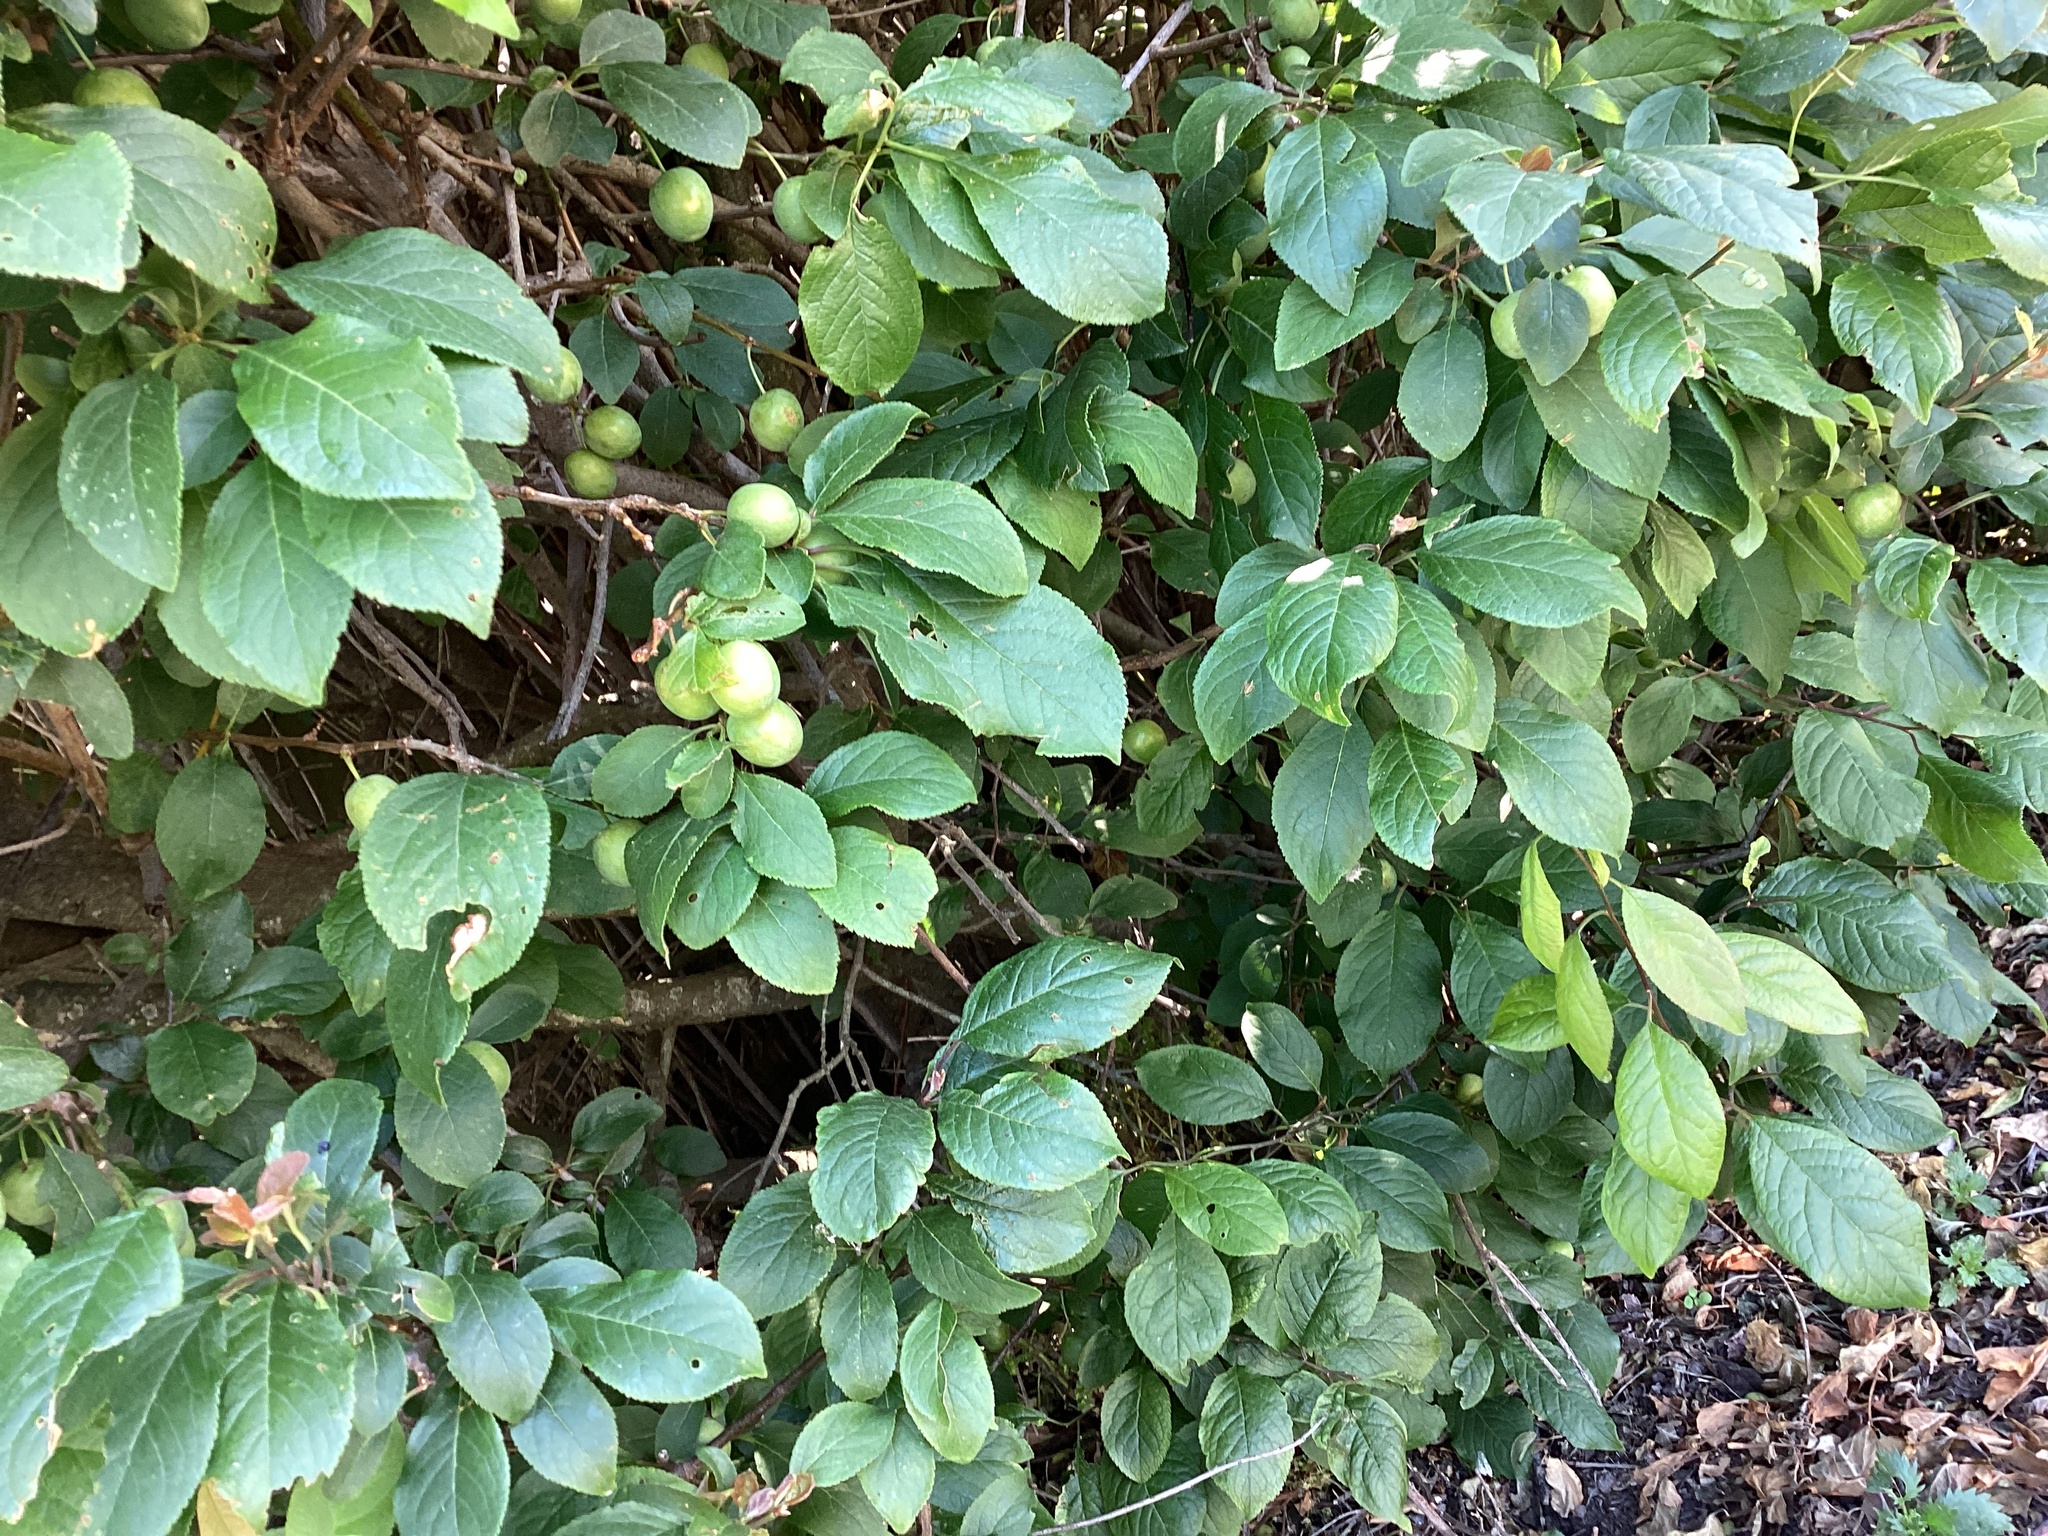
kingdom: Plantae
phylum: Tracheophyta
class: Magnoliopsida
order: Rosales
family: Rosaceae
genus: Prunus
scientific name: Prunus domestica
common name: Wild plum
